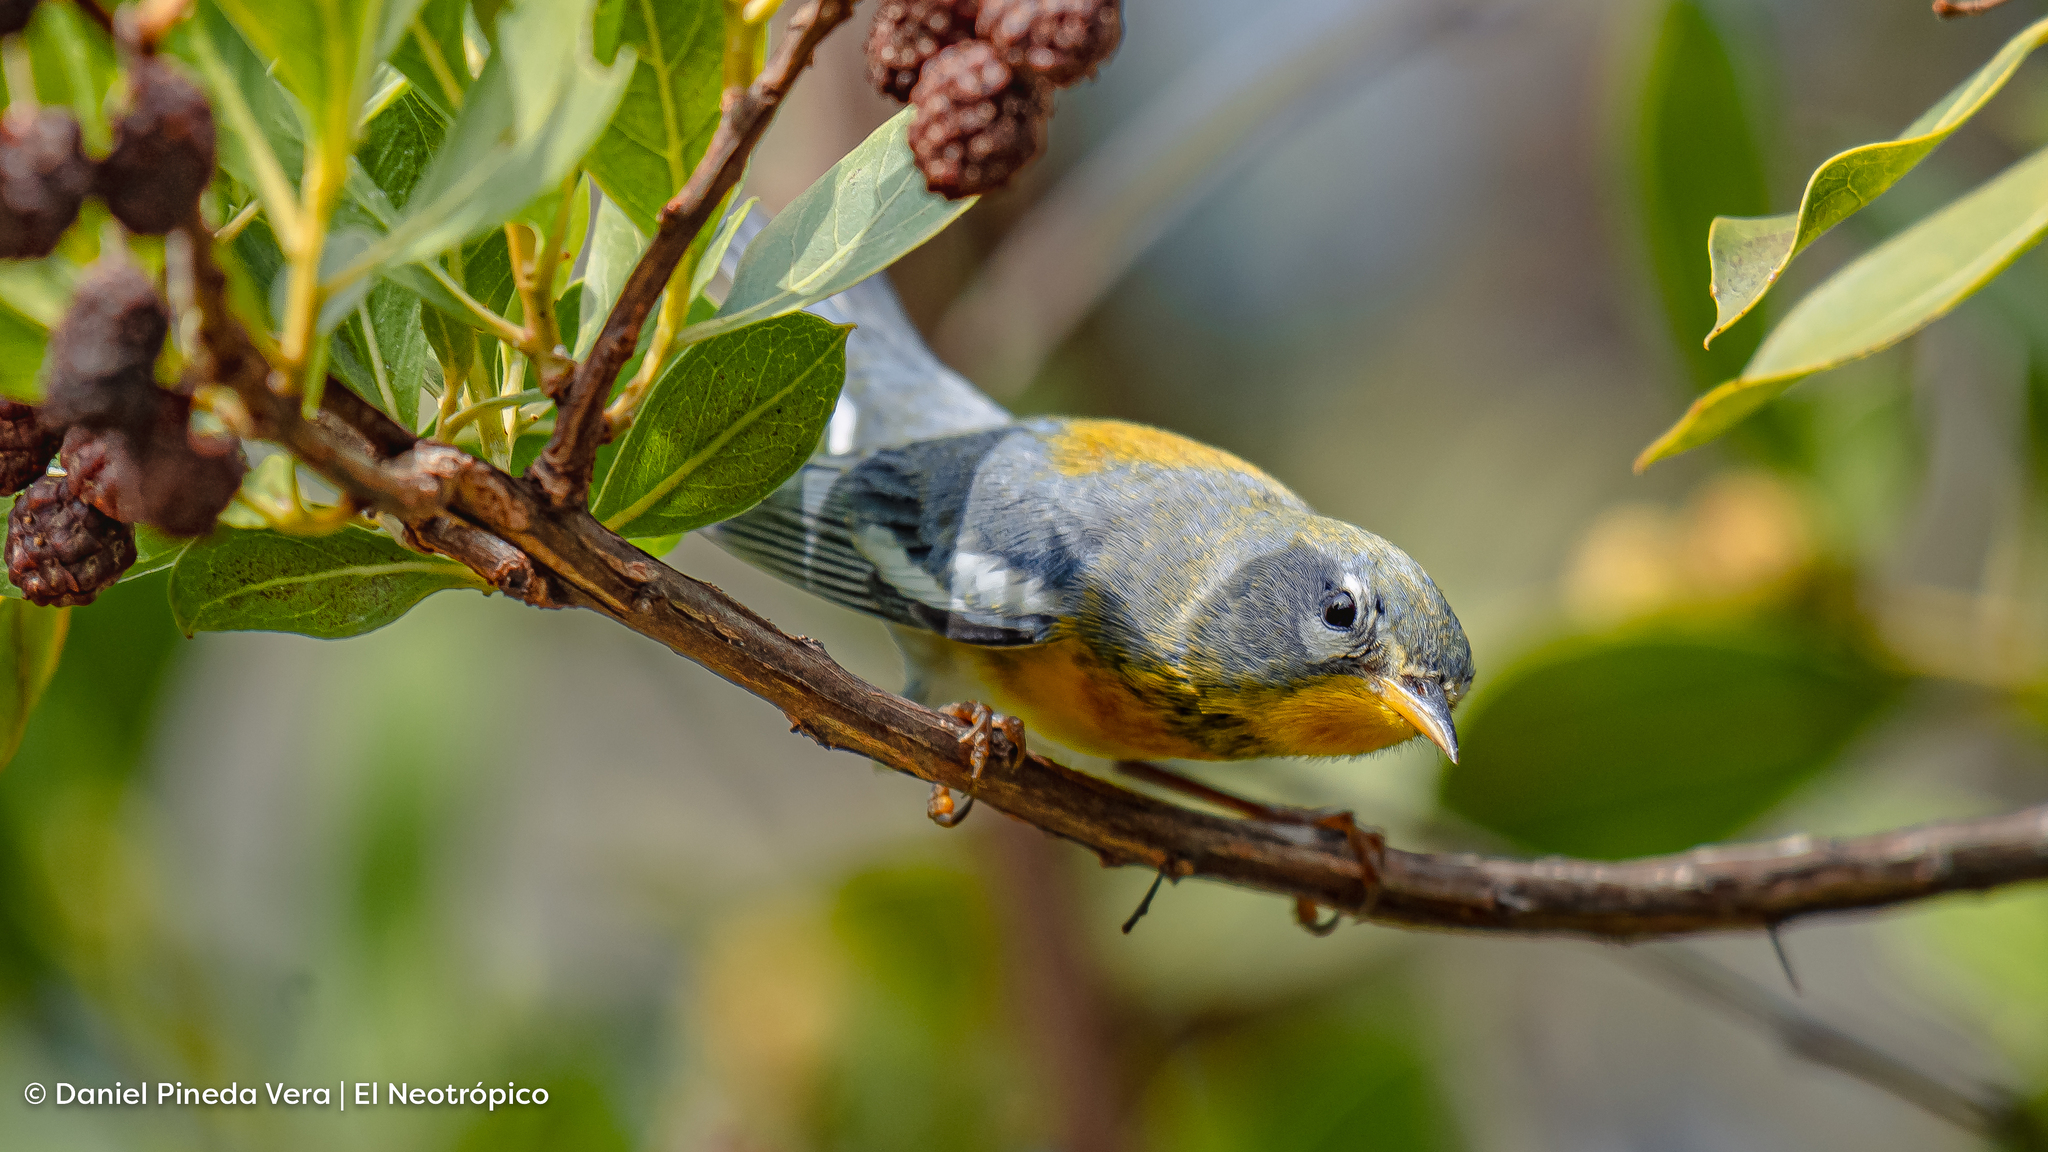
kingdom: Animalia
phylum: Chordata
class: Aves
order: Passeriformes
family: Parulidae
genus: Setophaga
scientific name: Setophaga americana
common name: Northern parula
